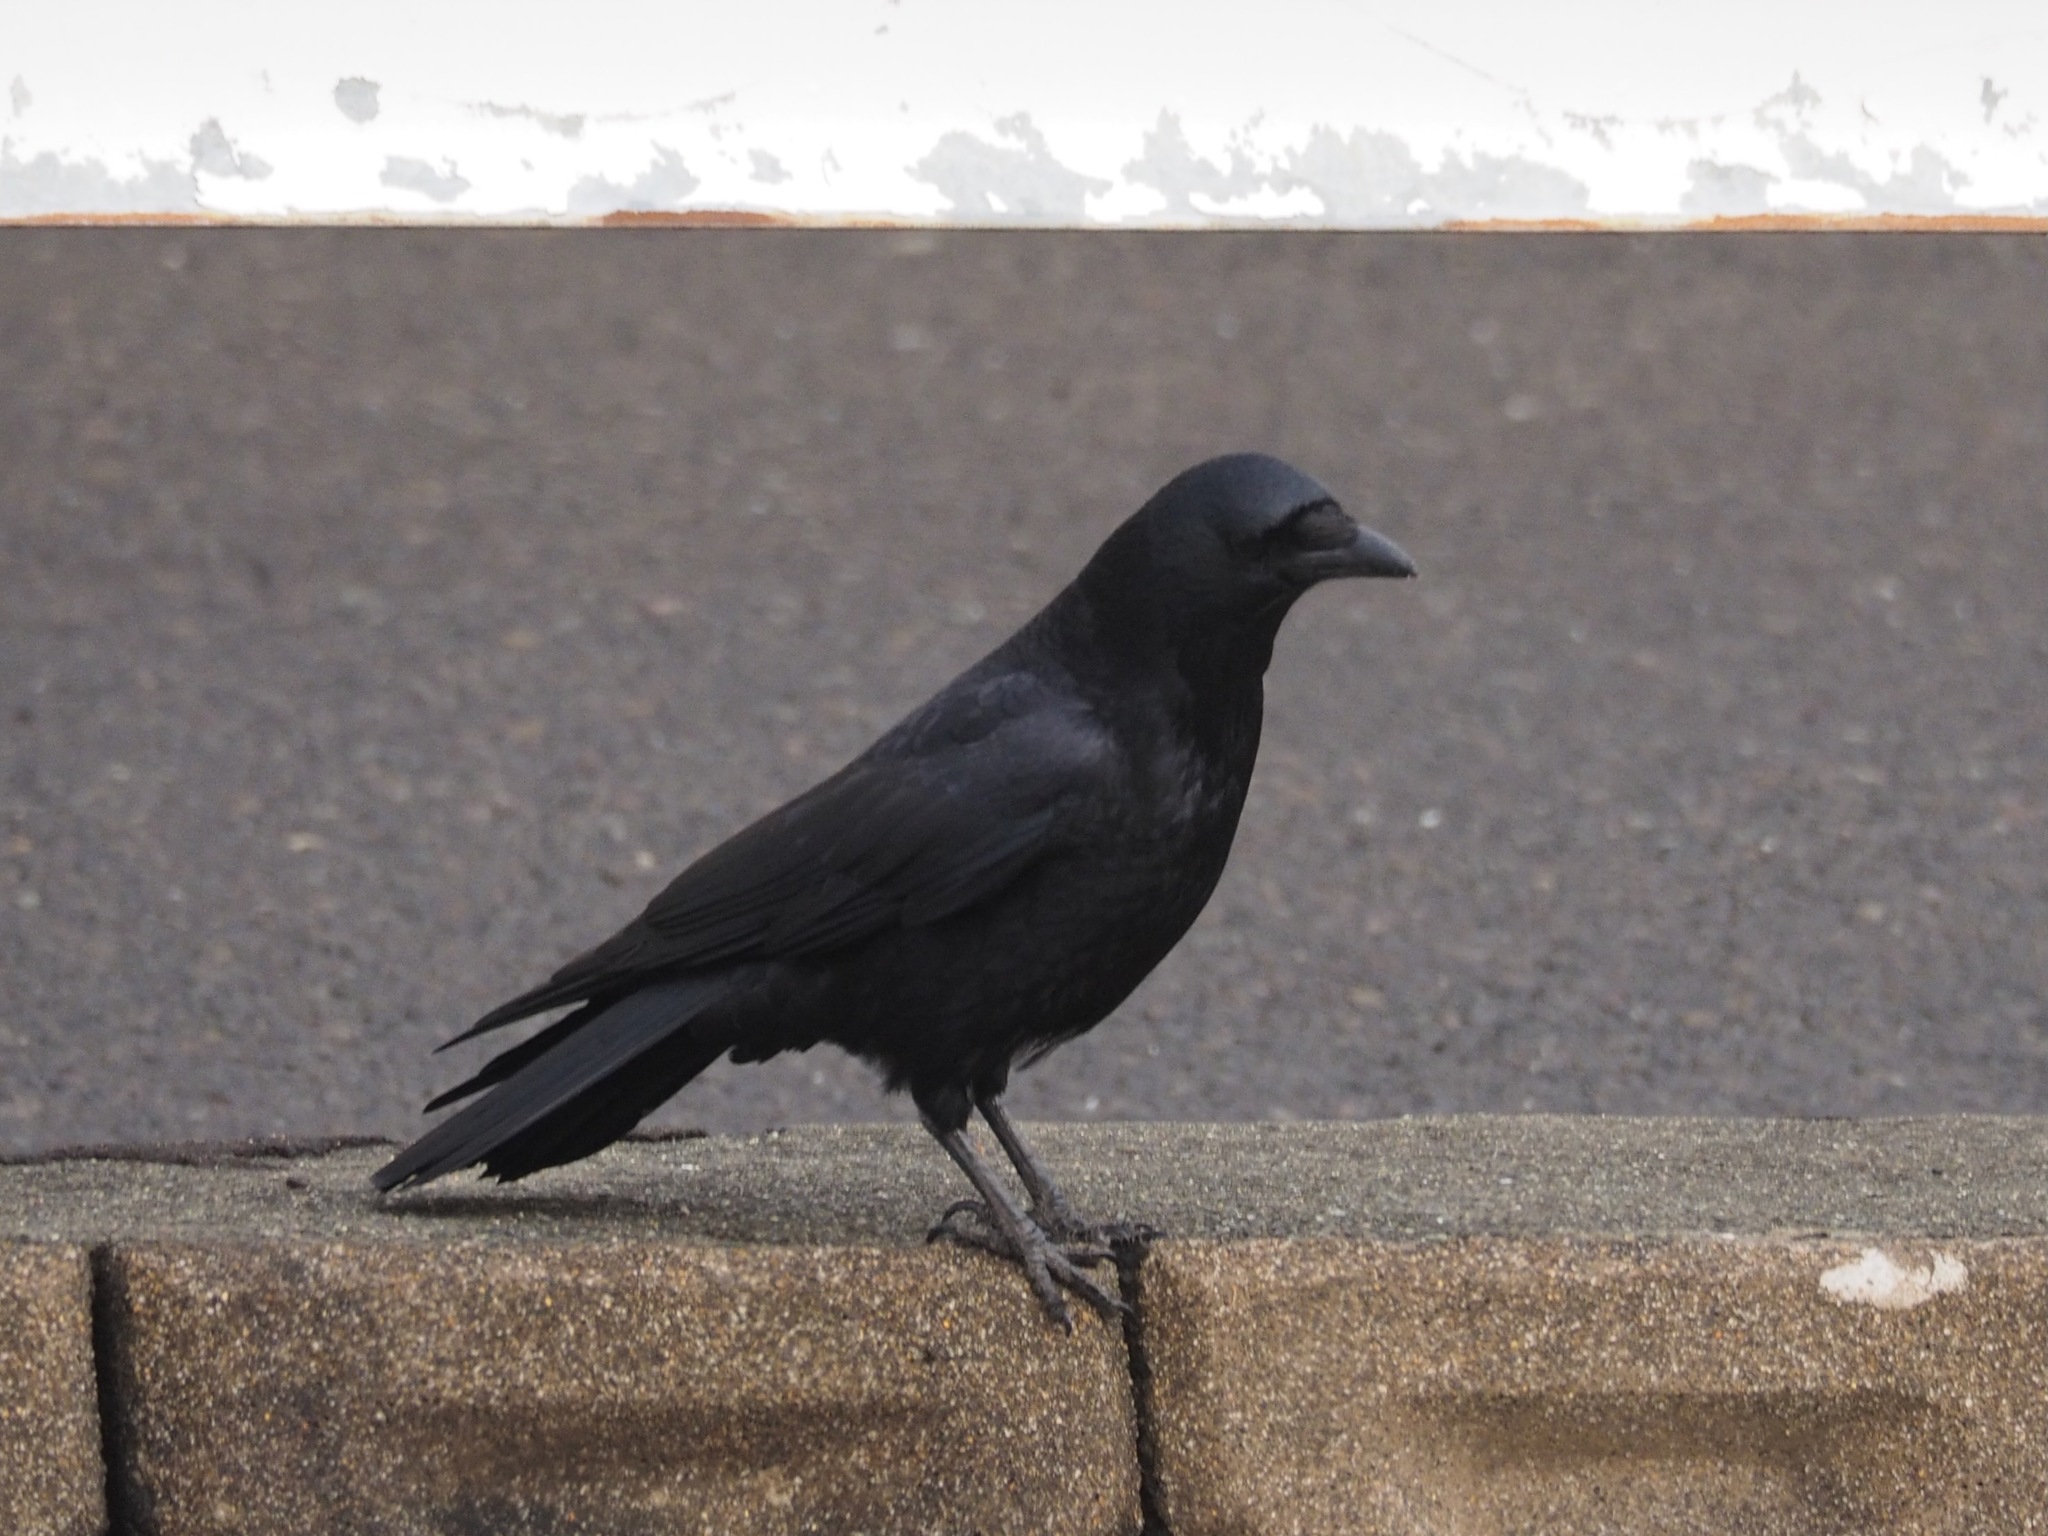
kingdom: Animalia
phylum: Chordata
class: Aves
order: Passeriformes
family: Corvidae
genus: Corvus
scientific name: Corvus corone
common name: Carrion crow
